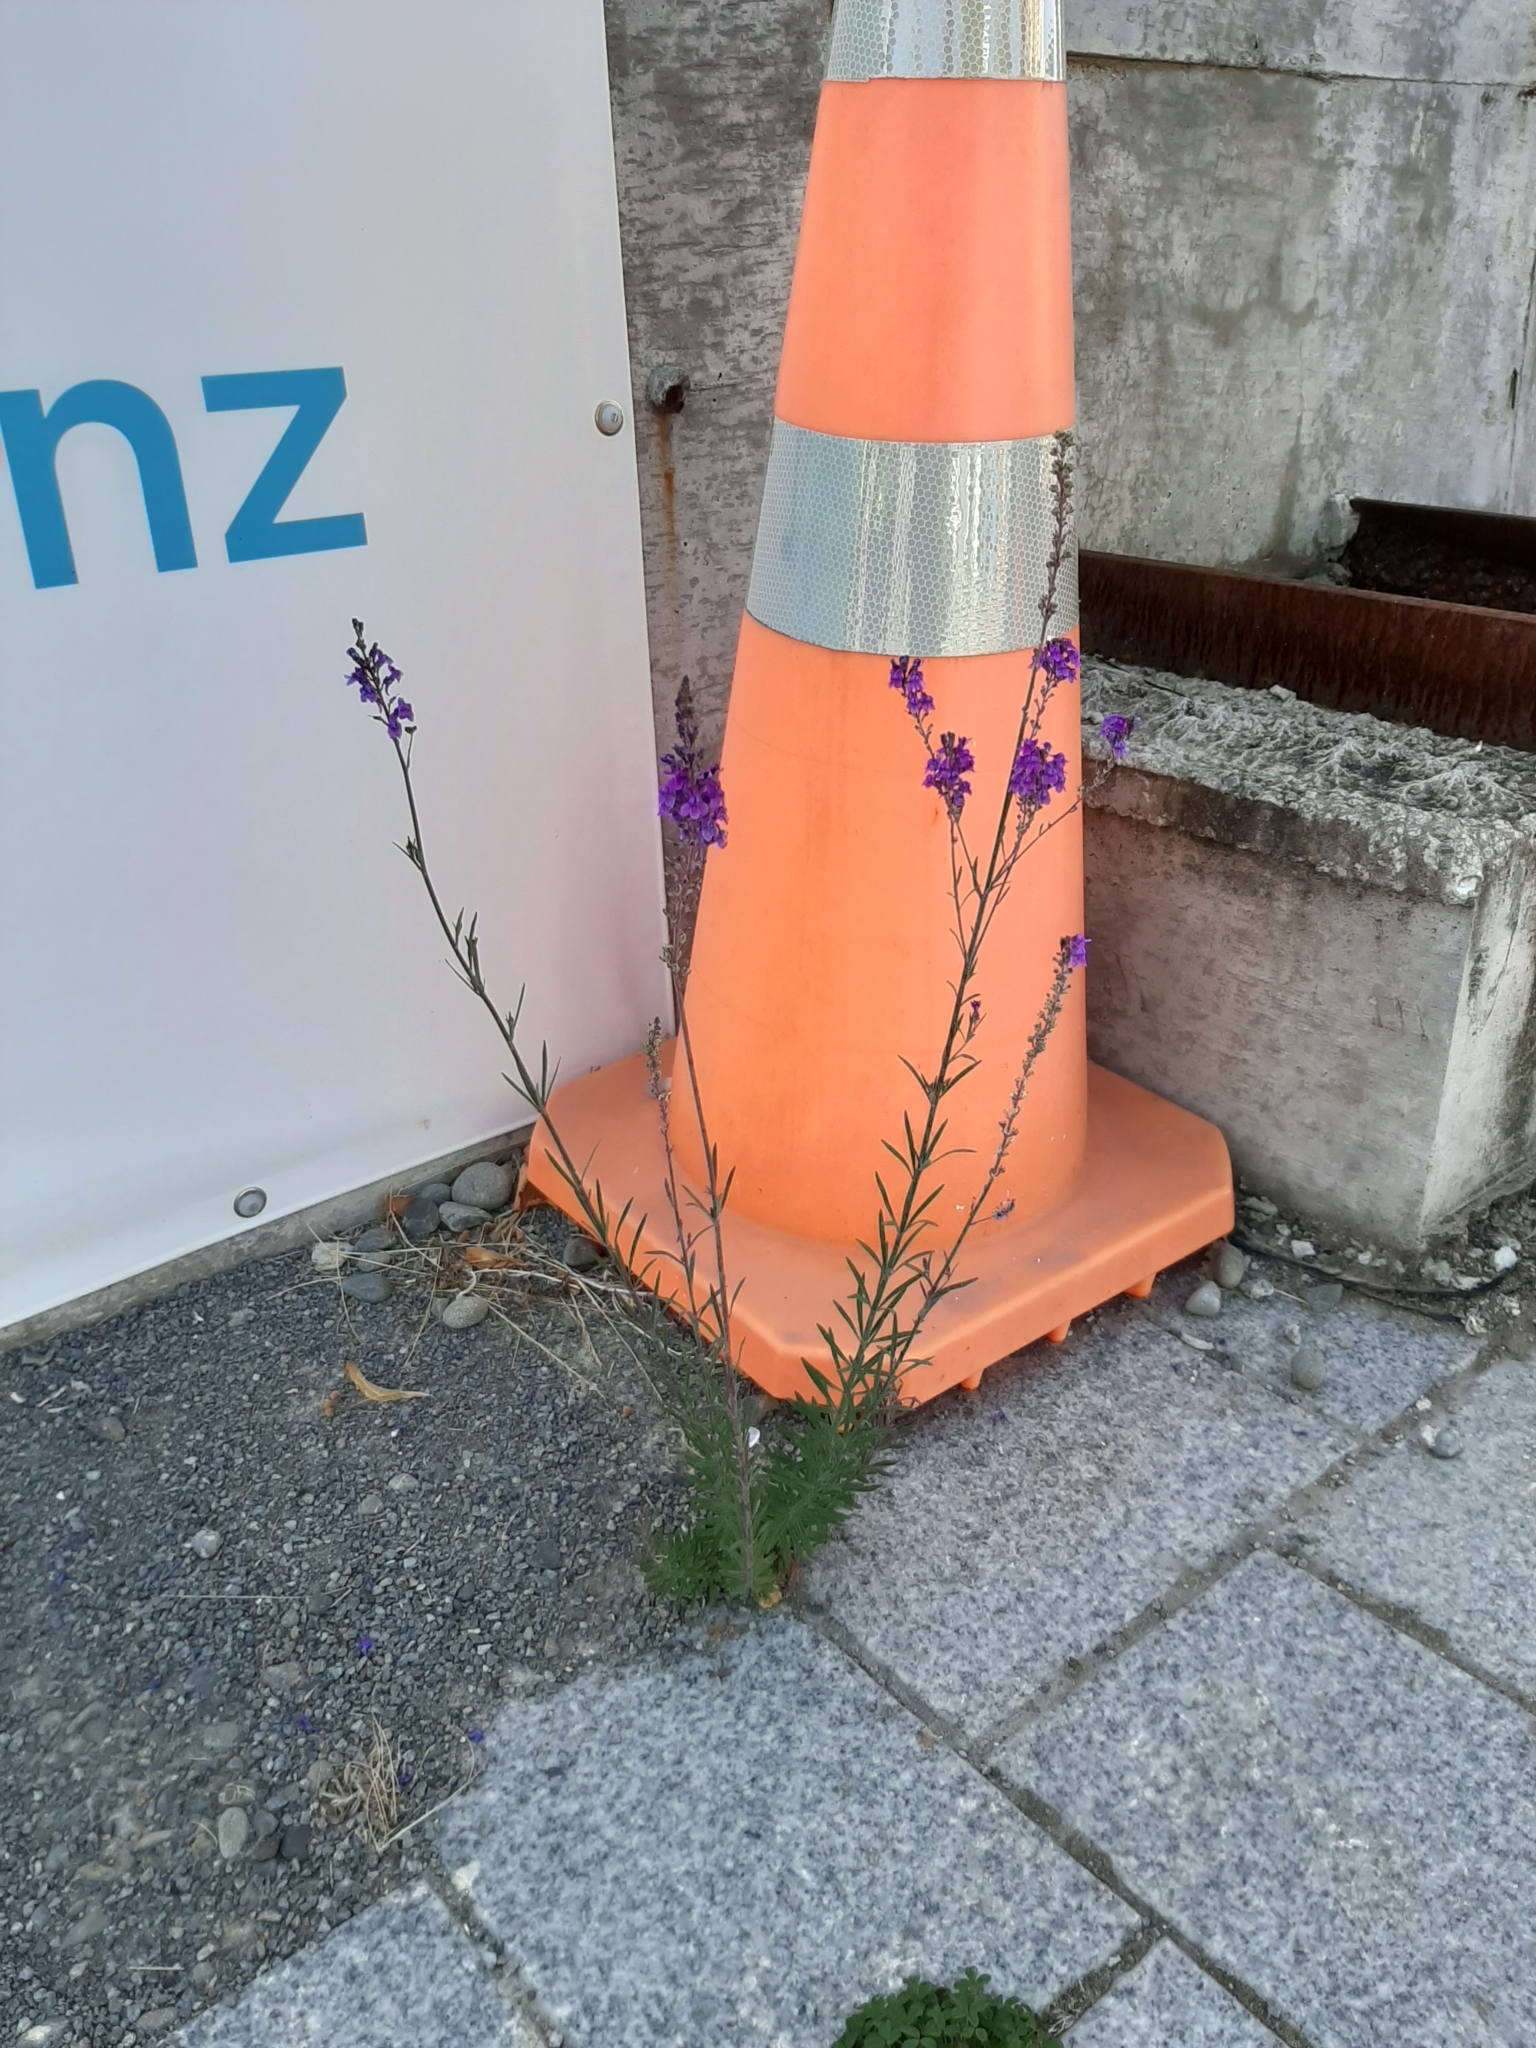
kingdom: Plantae
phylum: Tracheophyta
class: Magnoliopsida
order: Lamiales
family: Plantaginaceae
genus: Linaria
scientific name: Linaria purpurea
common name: Purple toadflax
